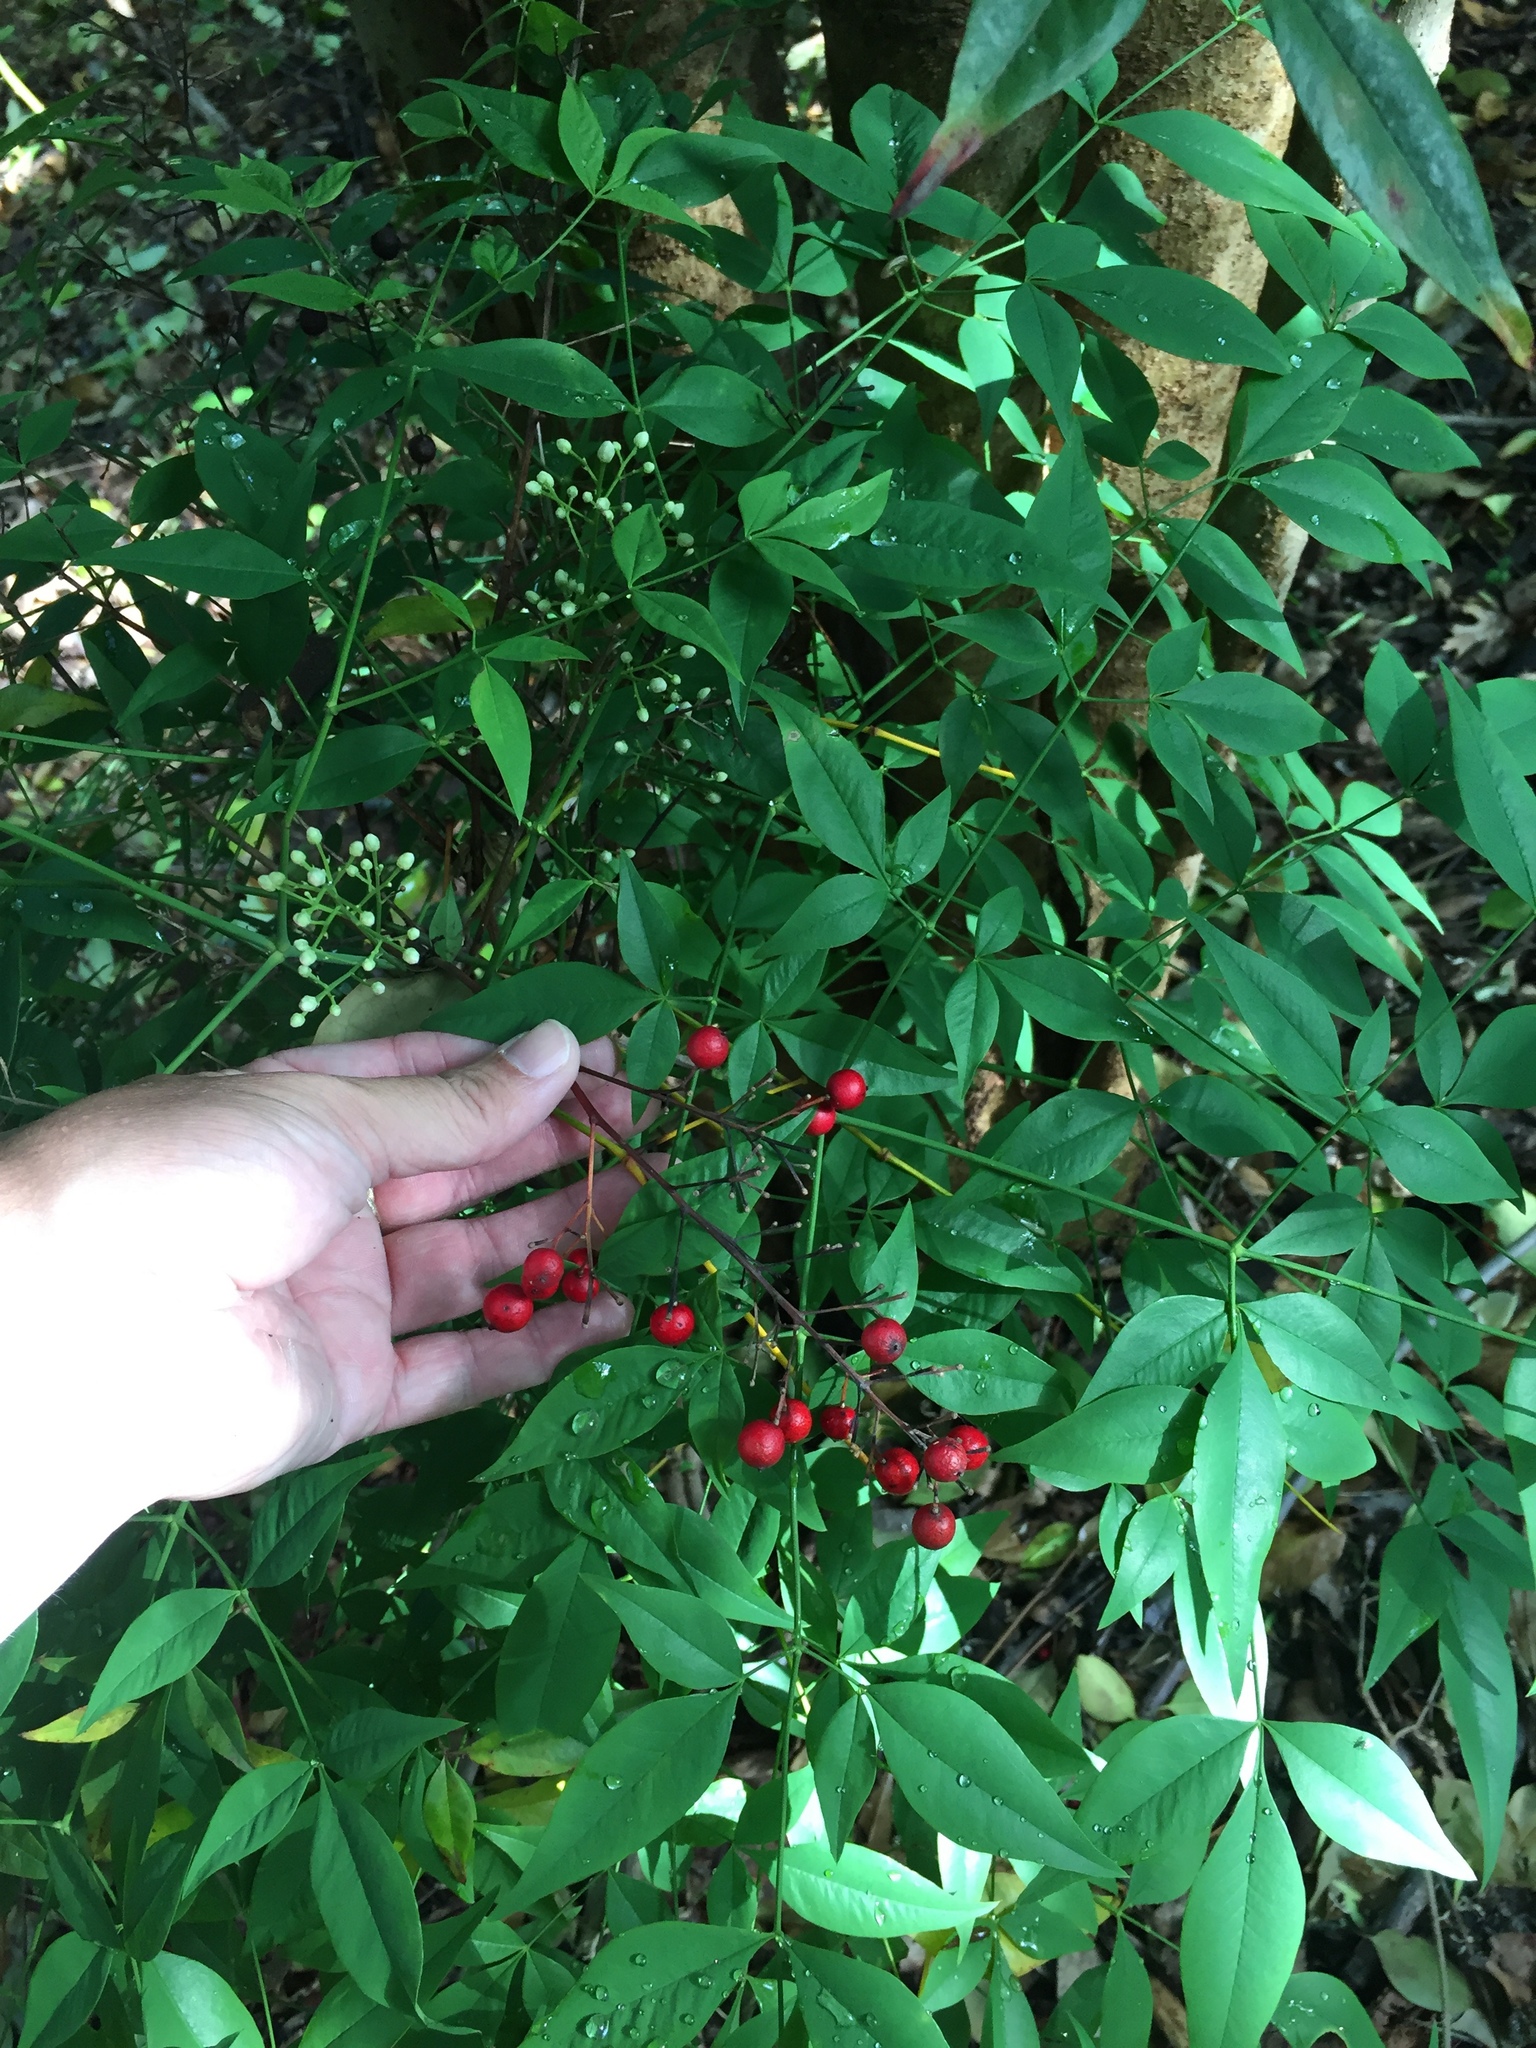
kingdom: Plantae
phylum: Tracheophyta
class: Magnoliopsida
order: Ranunculales
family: Berberidaceae
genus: Nandina
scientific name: Nandina domestica
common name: Sacred bamboo
